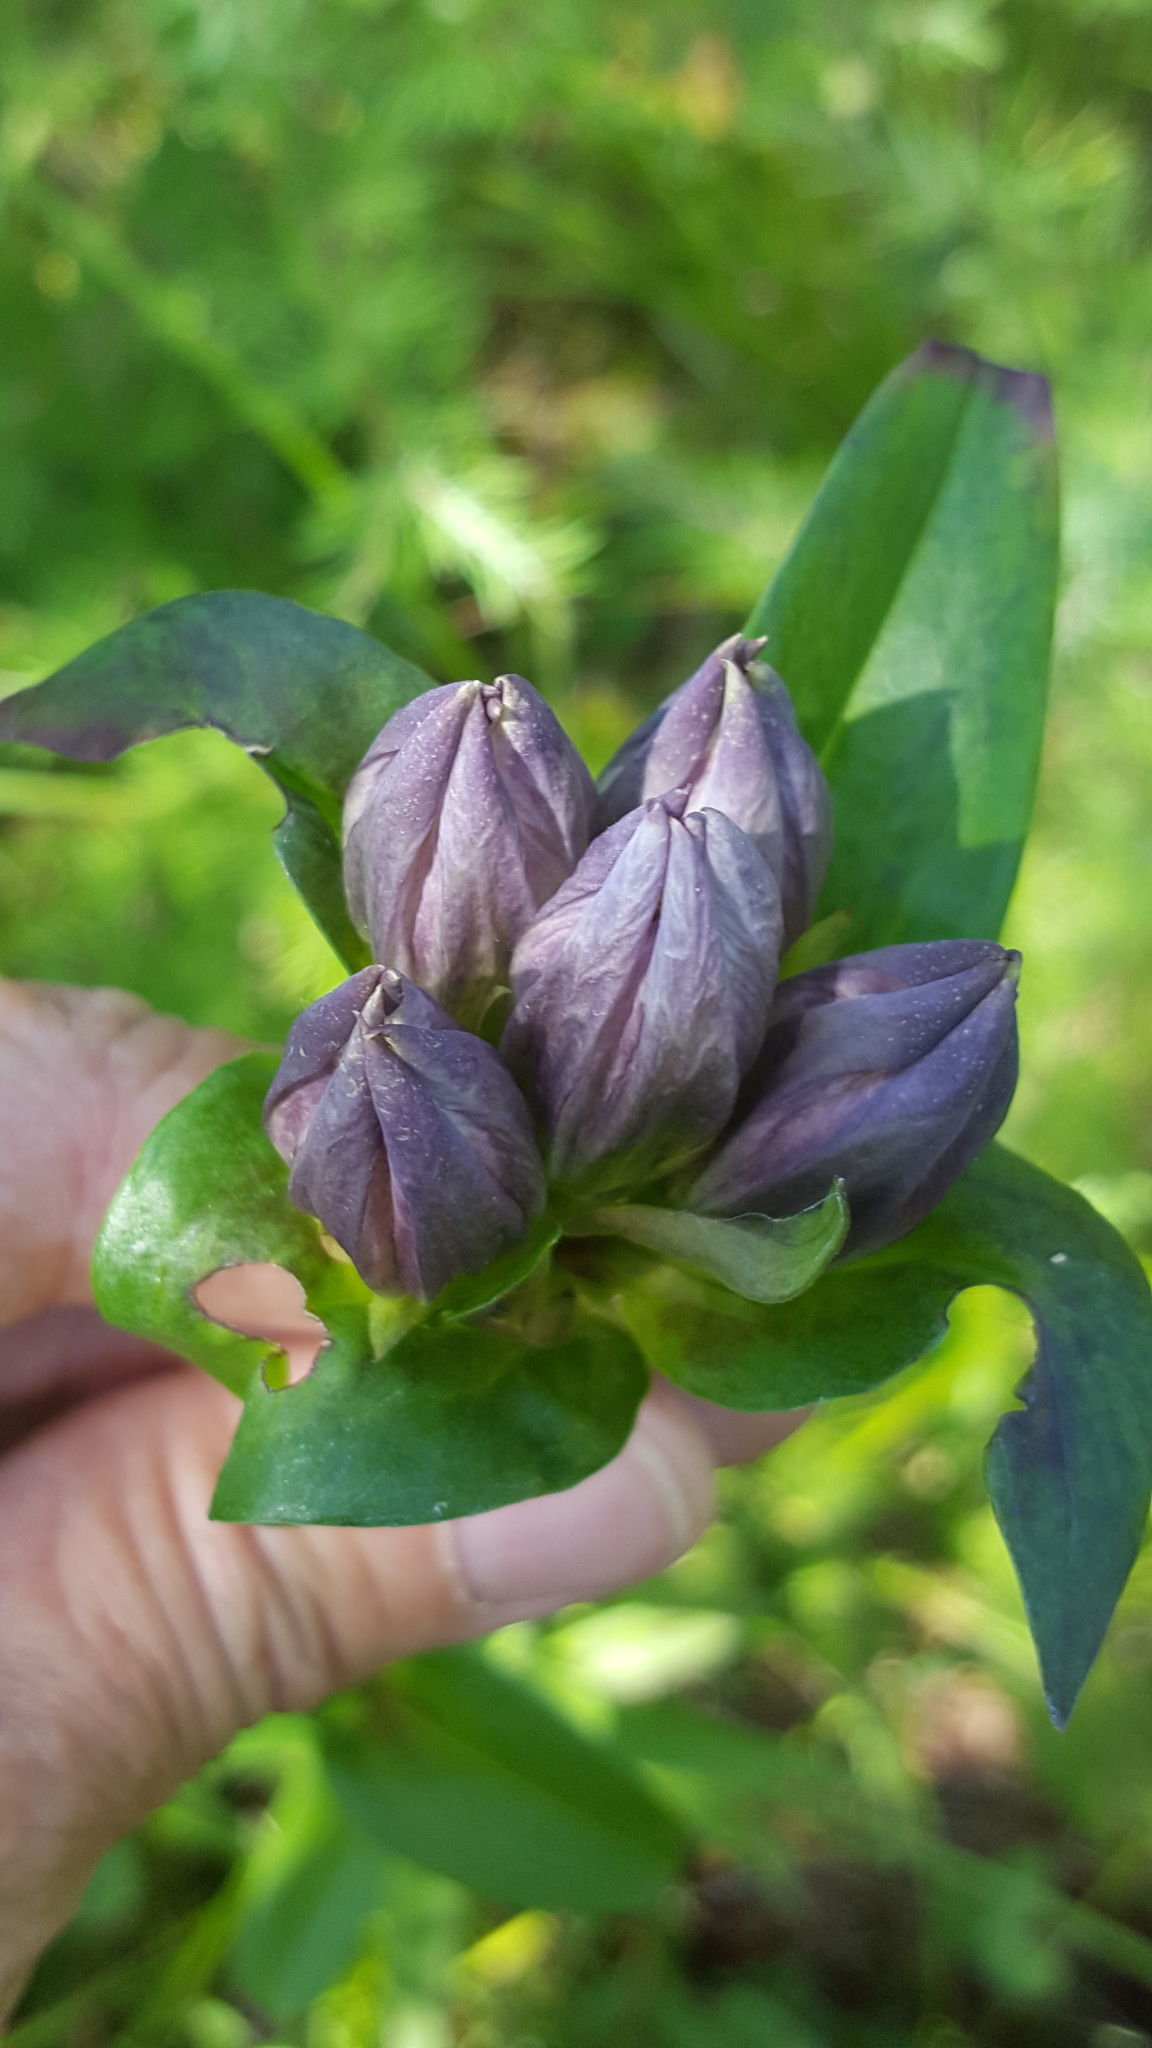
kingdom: Plantae
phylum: Tracheophyta
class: Magnoliopsida
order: Gentianales
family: Gentianaceae
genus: Gentiana
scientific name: Gentiana rubricaulis
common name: Purple-stemmed gentian
